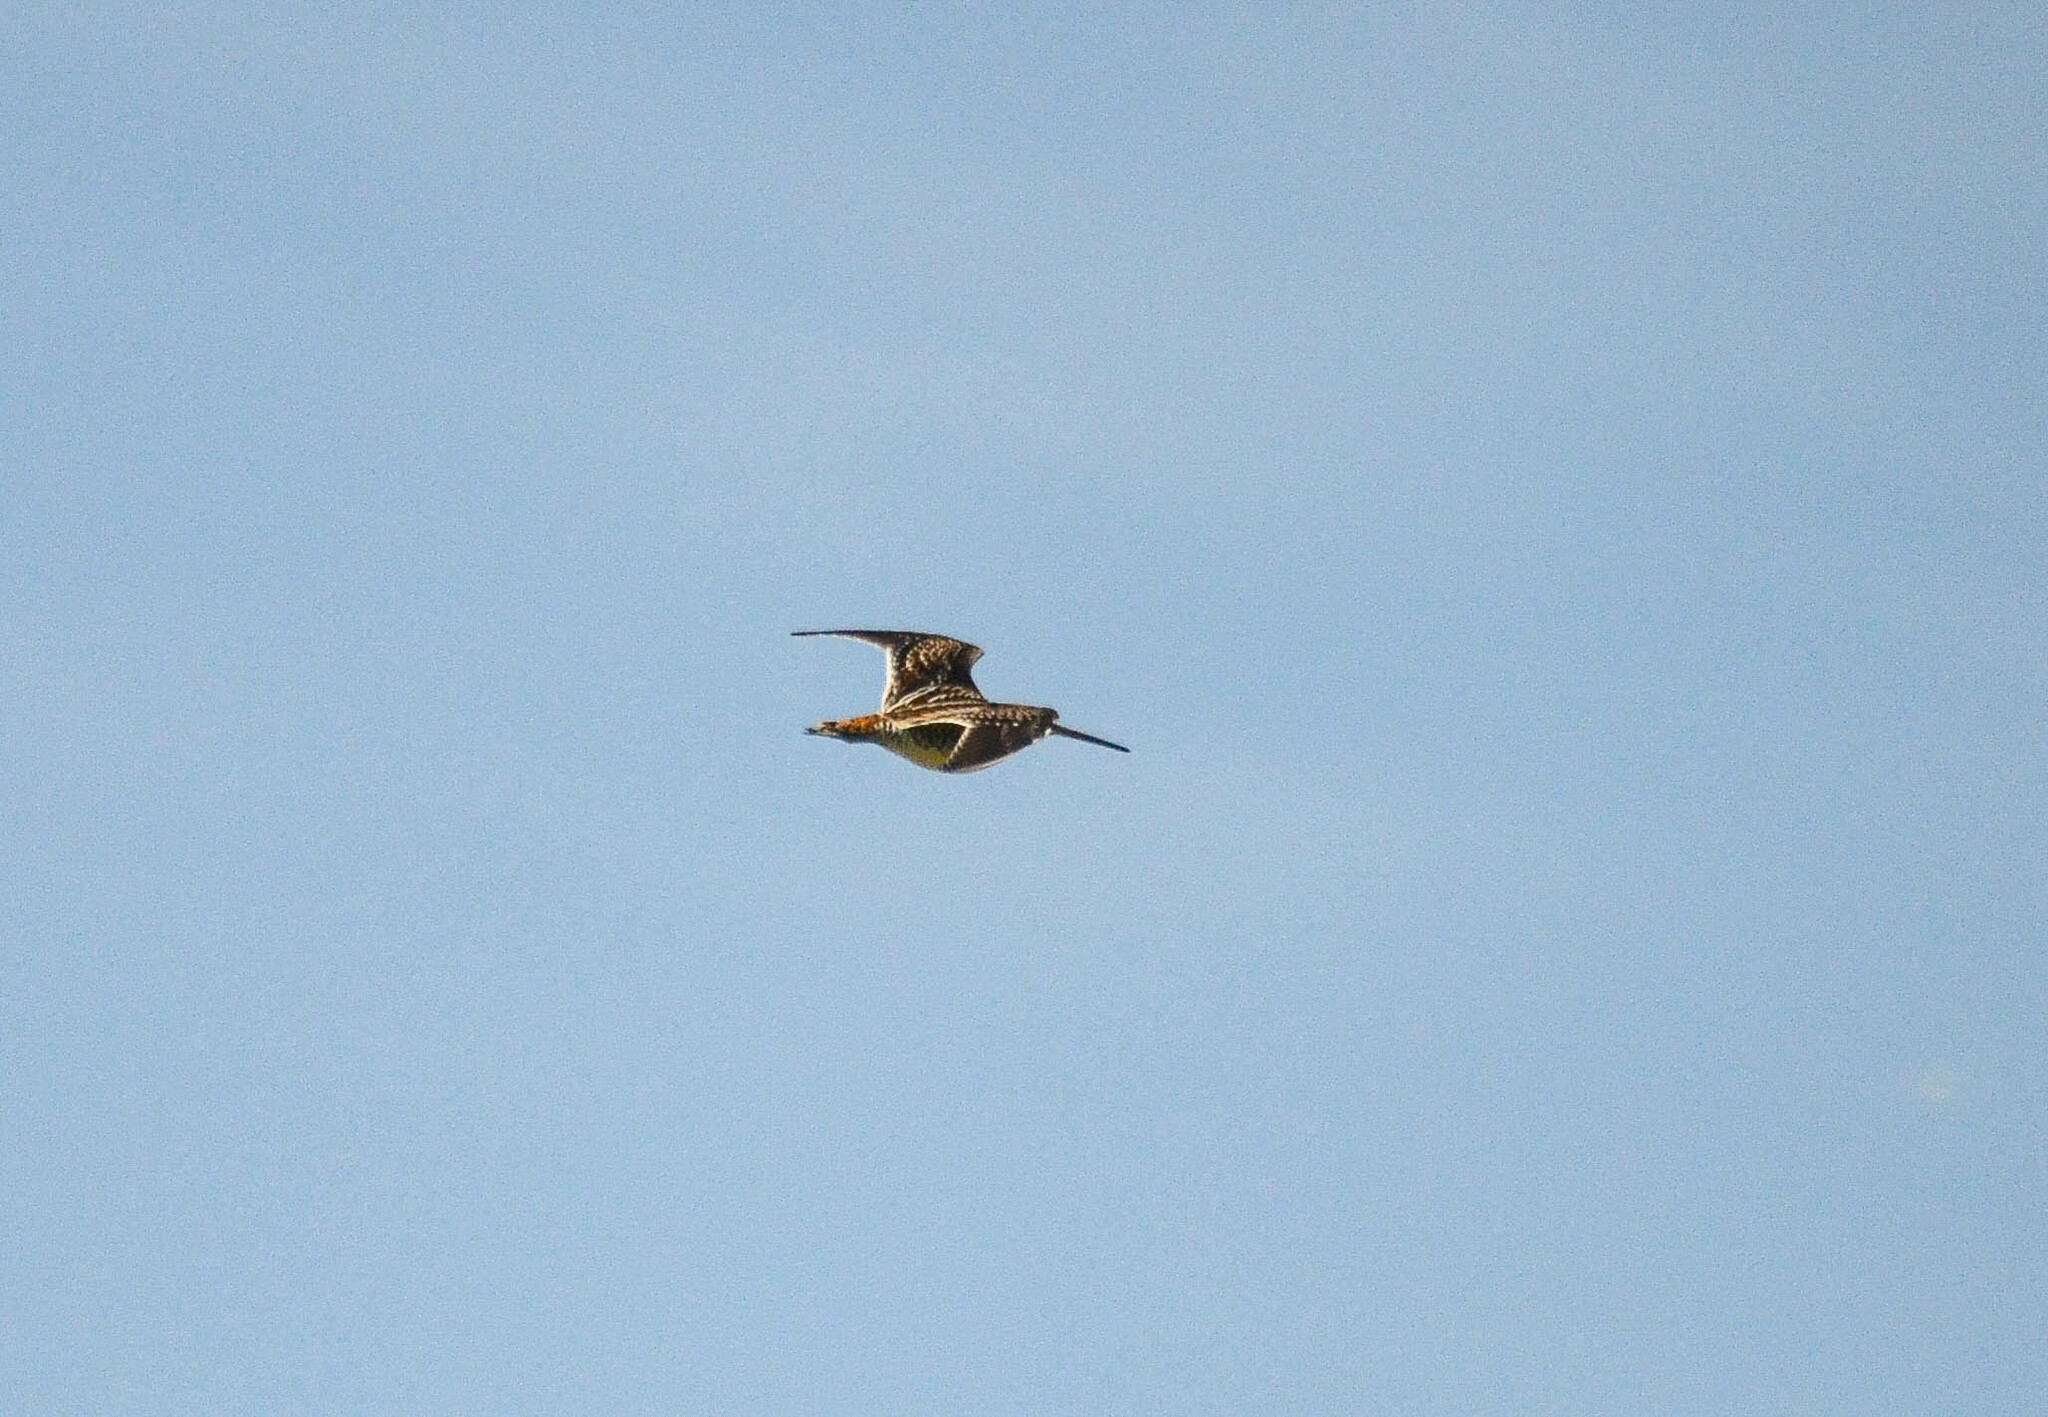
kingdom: Animalia
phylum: Chordata
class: Aves
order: Charadriiformes
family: Scolopacidae
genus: Gallinago
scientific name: Gallinago gallinago
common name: Common snipe
